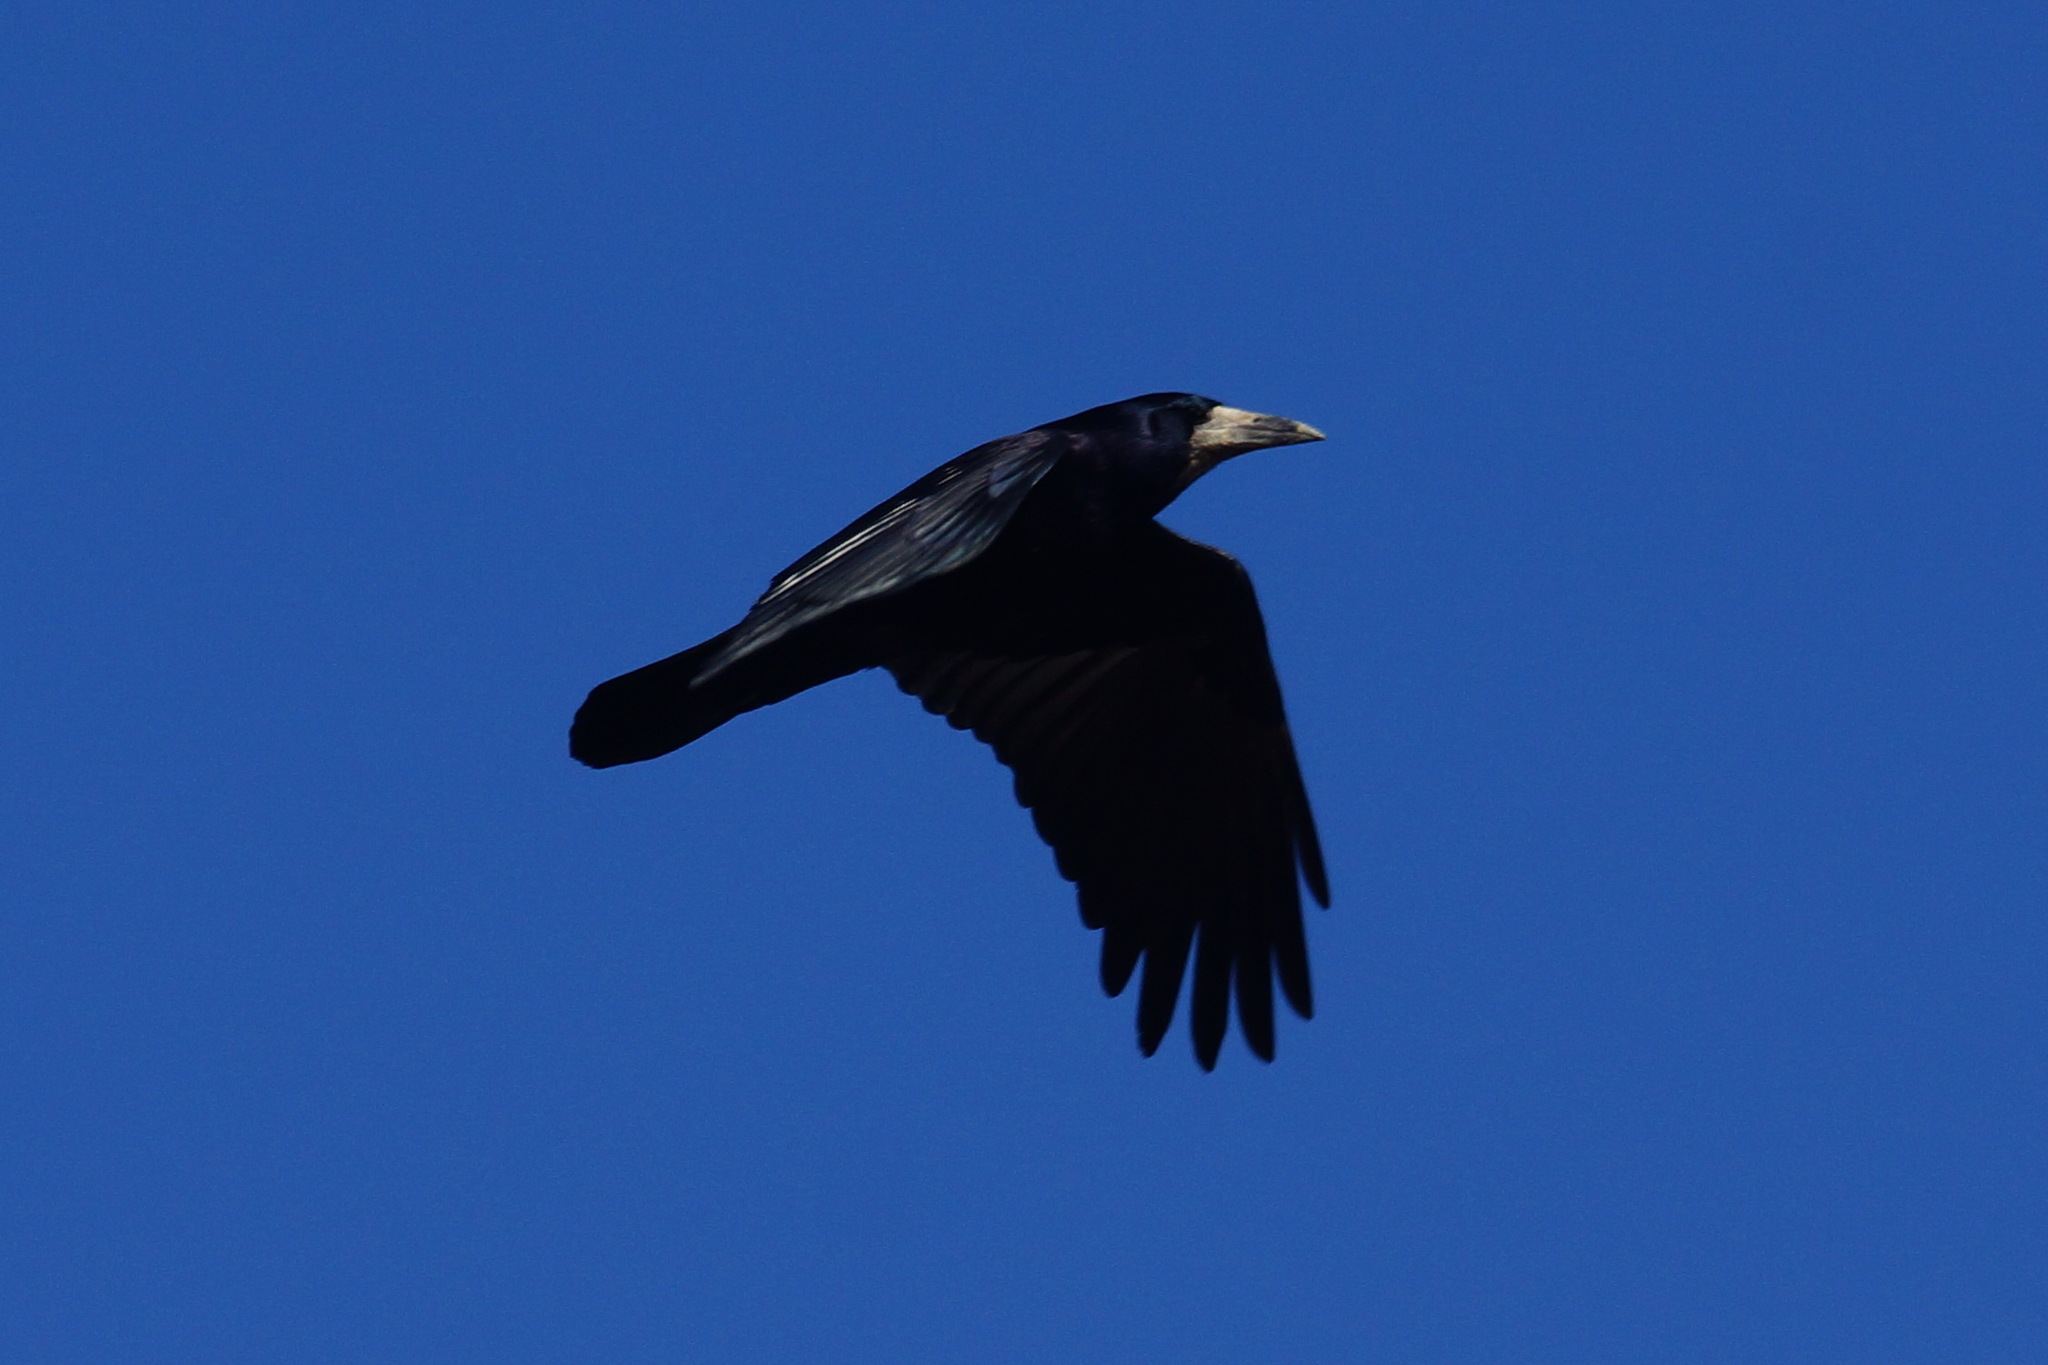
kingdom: Animalia
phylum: Chordata
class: Aves
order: Passeriformes
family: Corvidae
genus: Corvus
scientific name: Corvus frugilegus
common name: Rook
